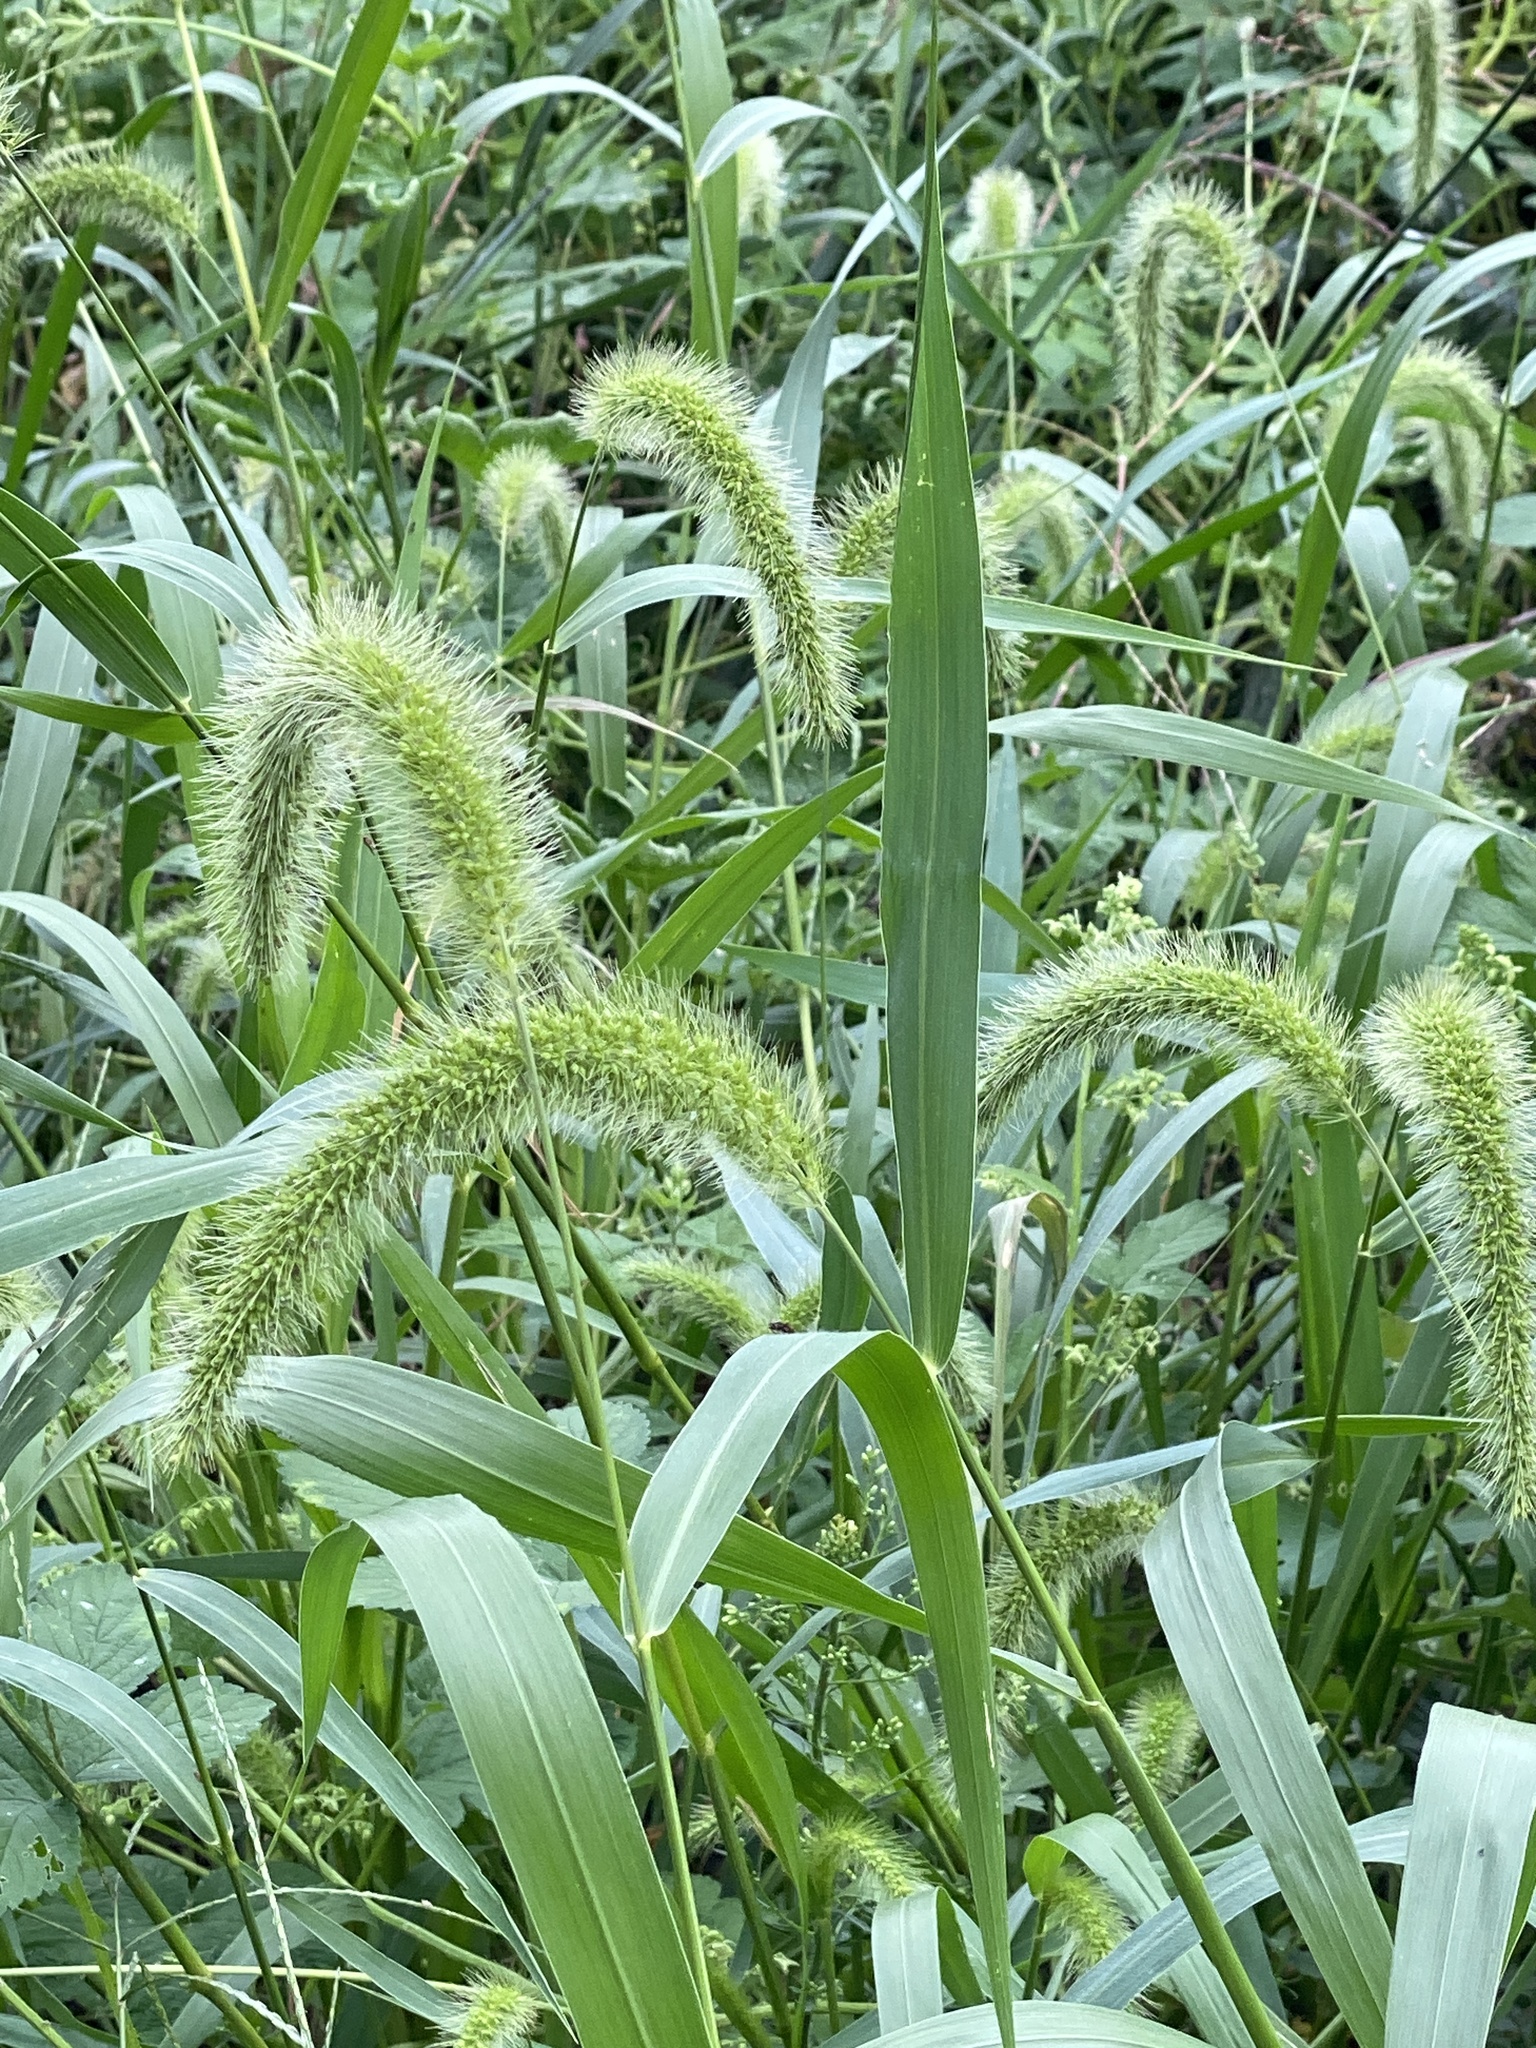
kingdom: Plantae
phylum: Tracheophyta
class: Liliopsida
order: Poales
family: Poaceae
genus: Setaria
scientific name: Setaria faberi
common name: Nodding bristle-grass
